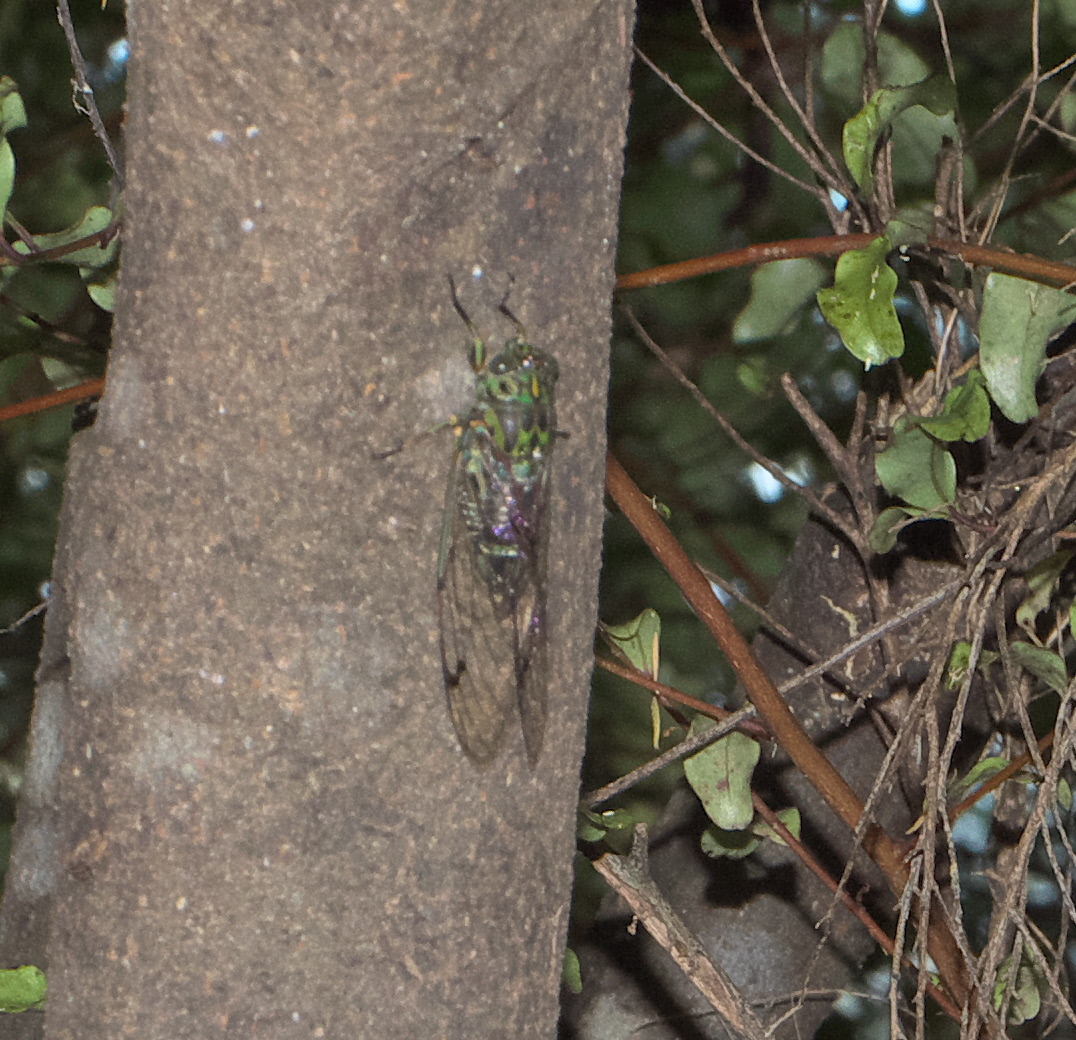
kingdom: Animalia
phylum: Arthropoda
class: Insecta
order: Hemiptera
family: Cicadidae
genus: Amphipsalta
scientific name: Amphipsalta zelandica
